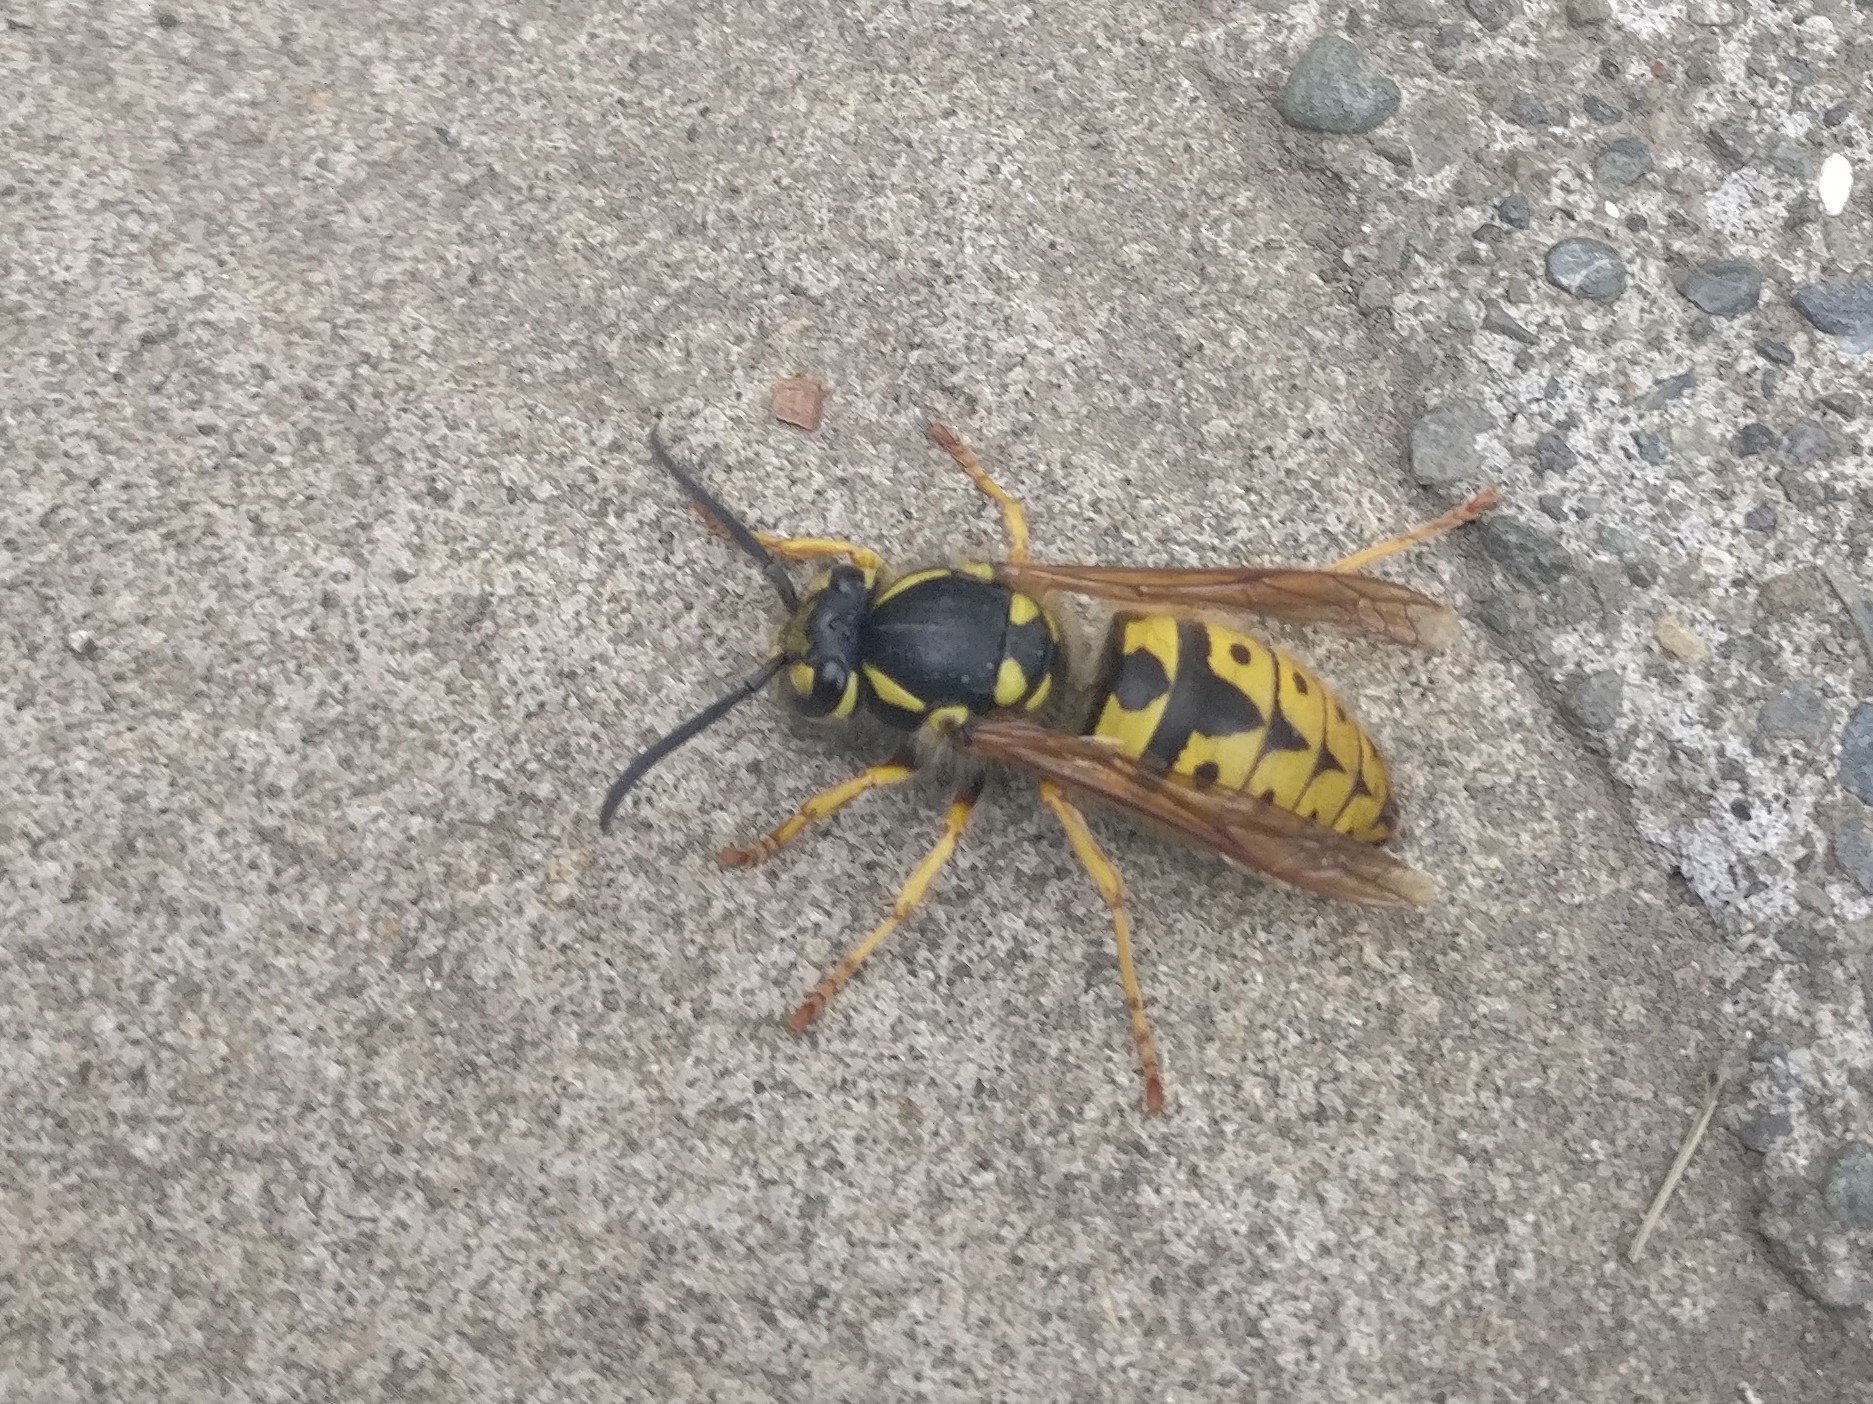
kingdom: Animalia
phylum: Arthropoda
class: Insecta
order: Hymenoptera
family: Vespidae
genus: Vespula
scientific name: Vespula germanica
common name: German wasp
